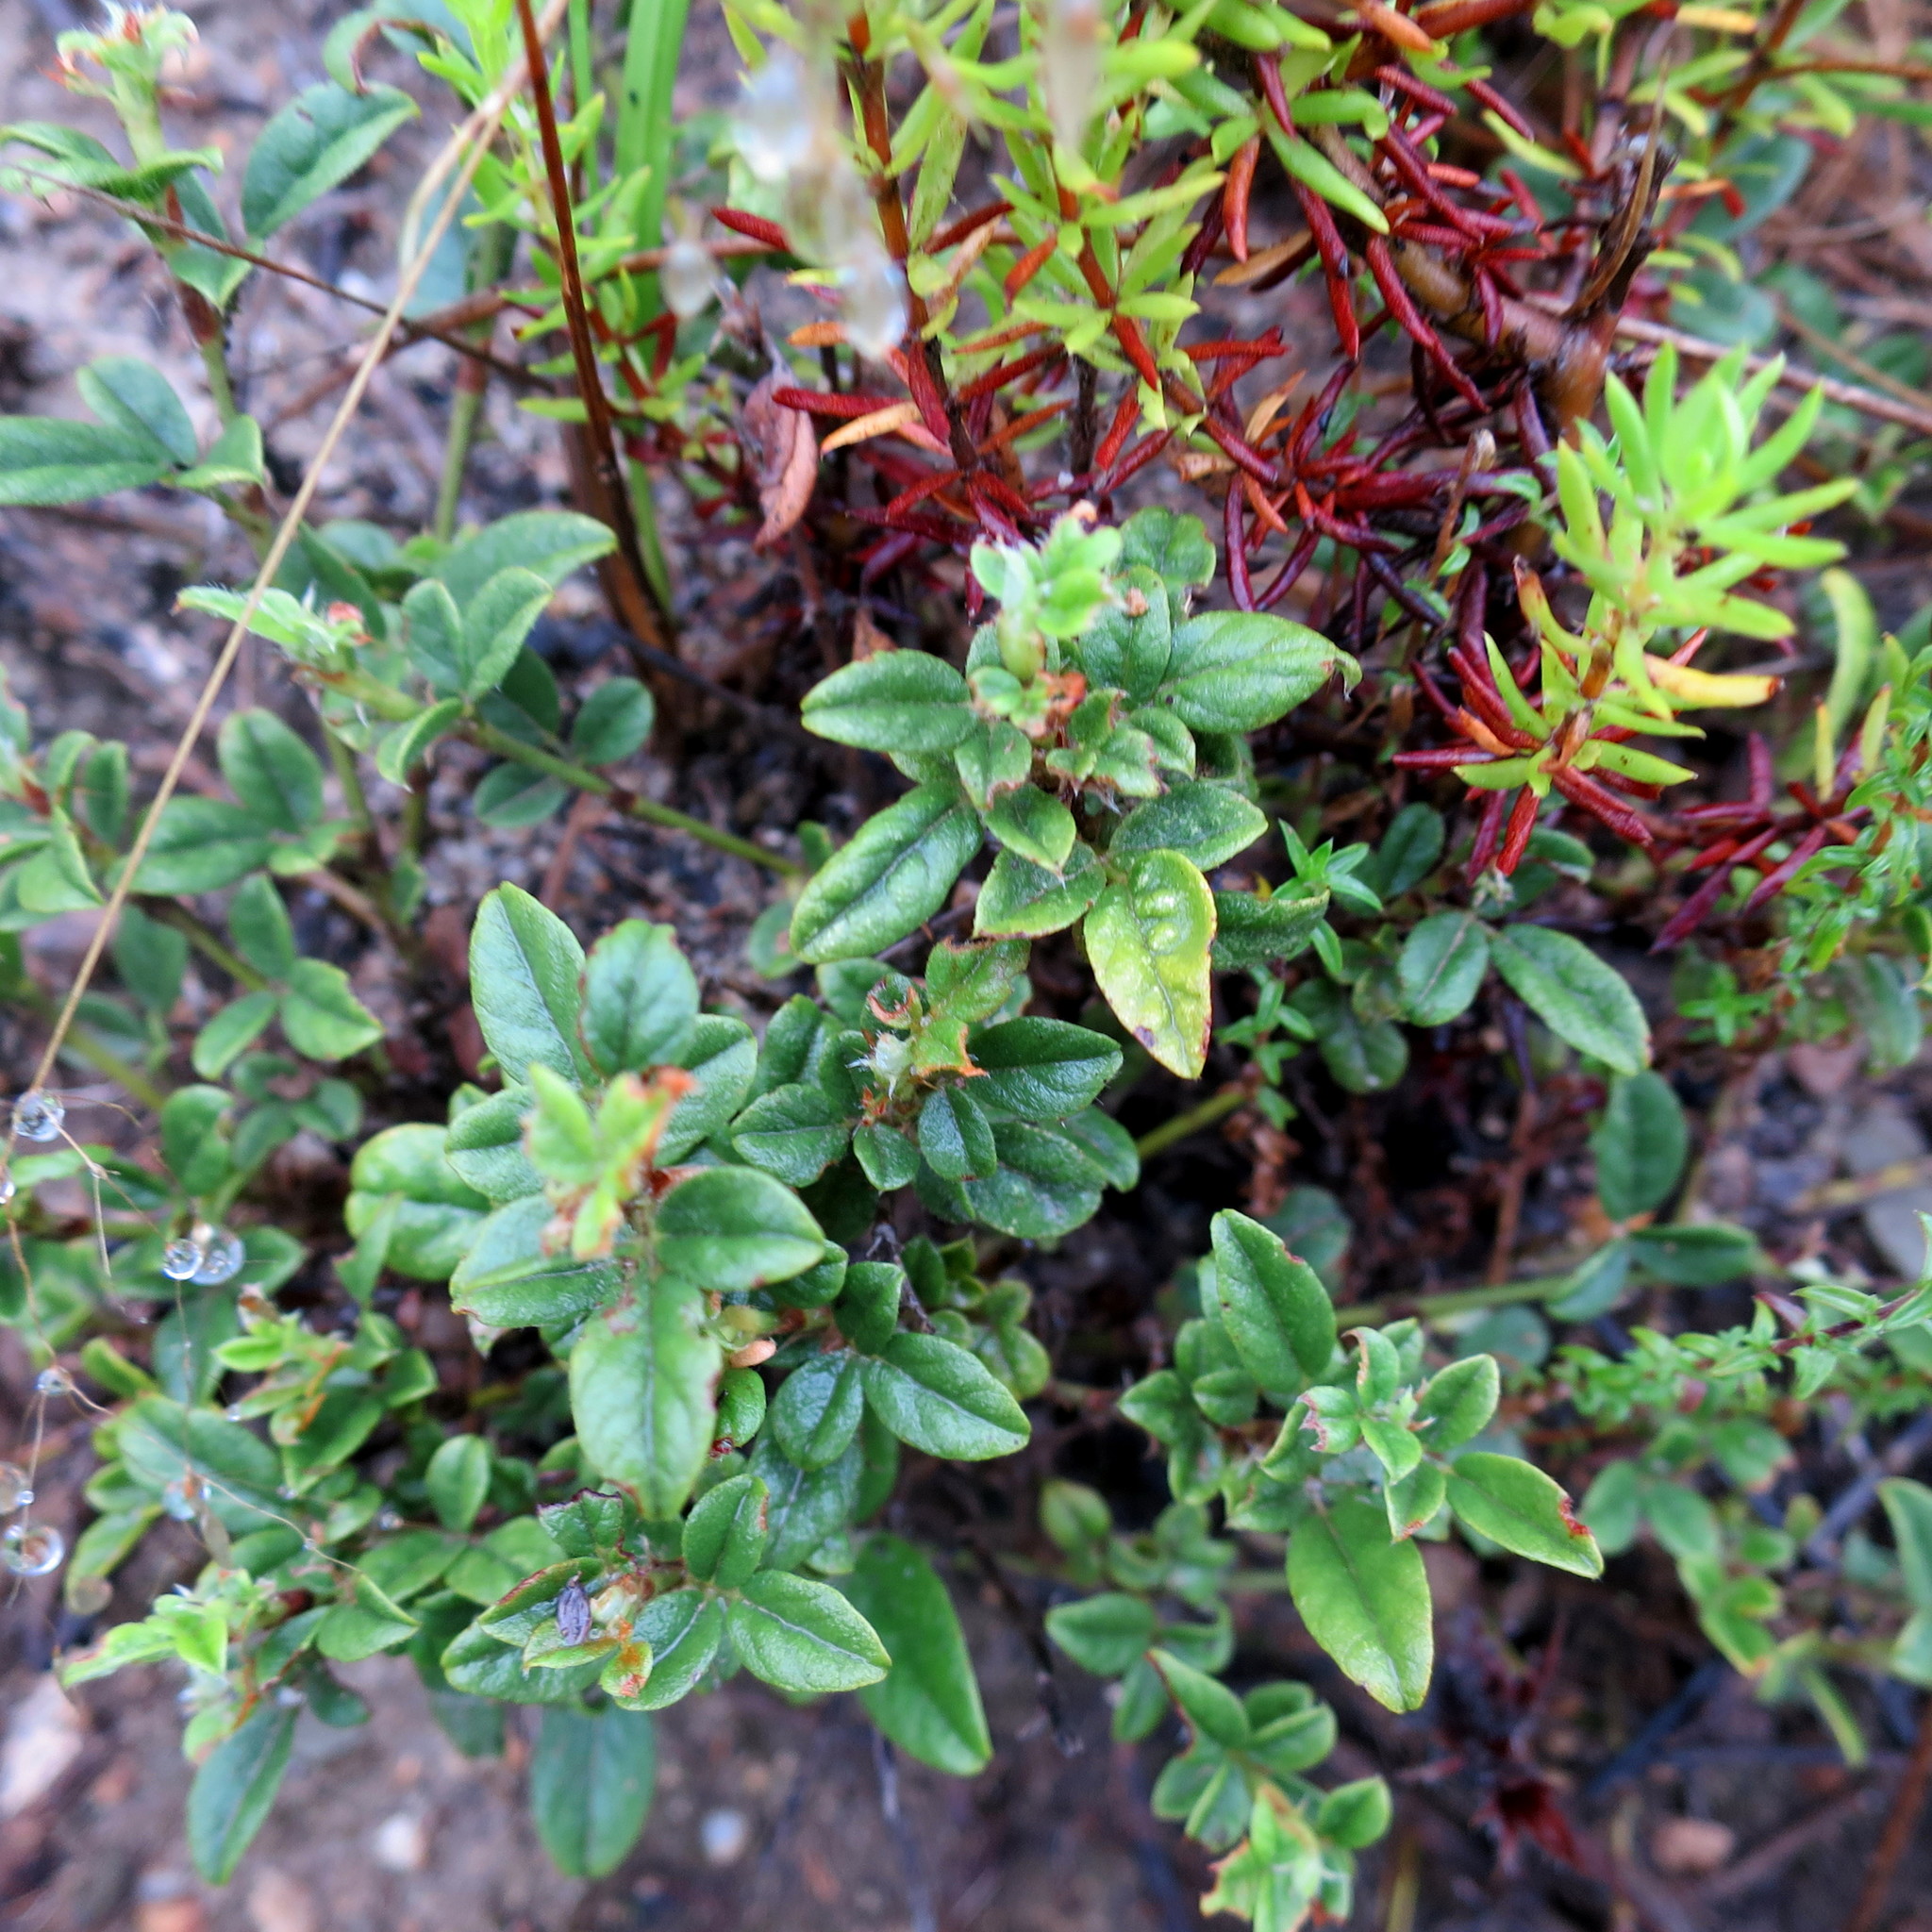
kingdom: Plantae
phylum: Tracheophyta
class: Magnoliopsida
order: Fabales
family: Fabaceae
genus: Psoralea
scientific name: Psoralea swartbergensis
